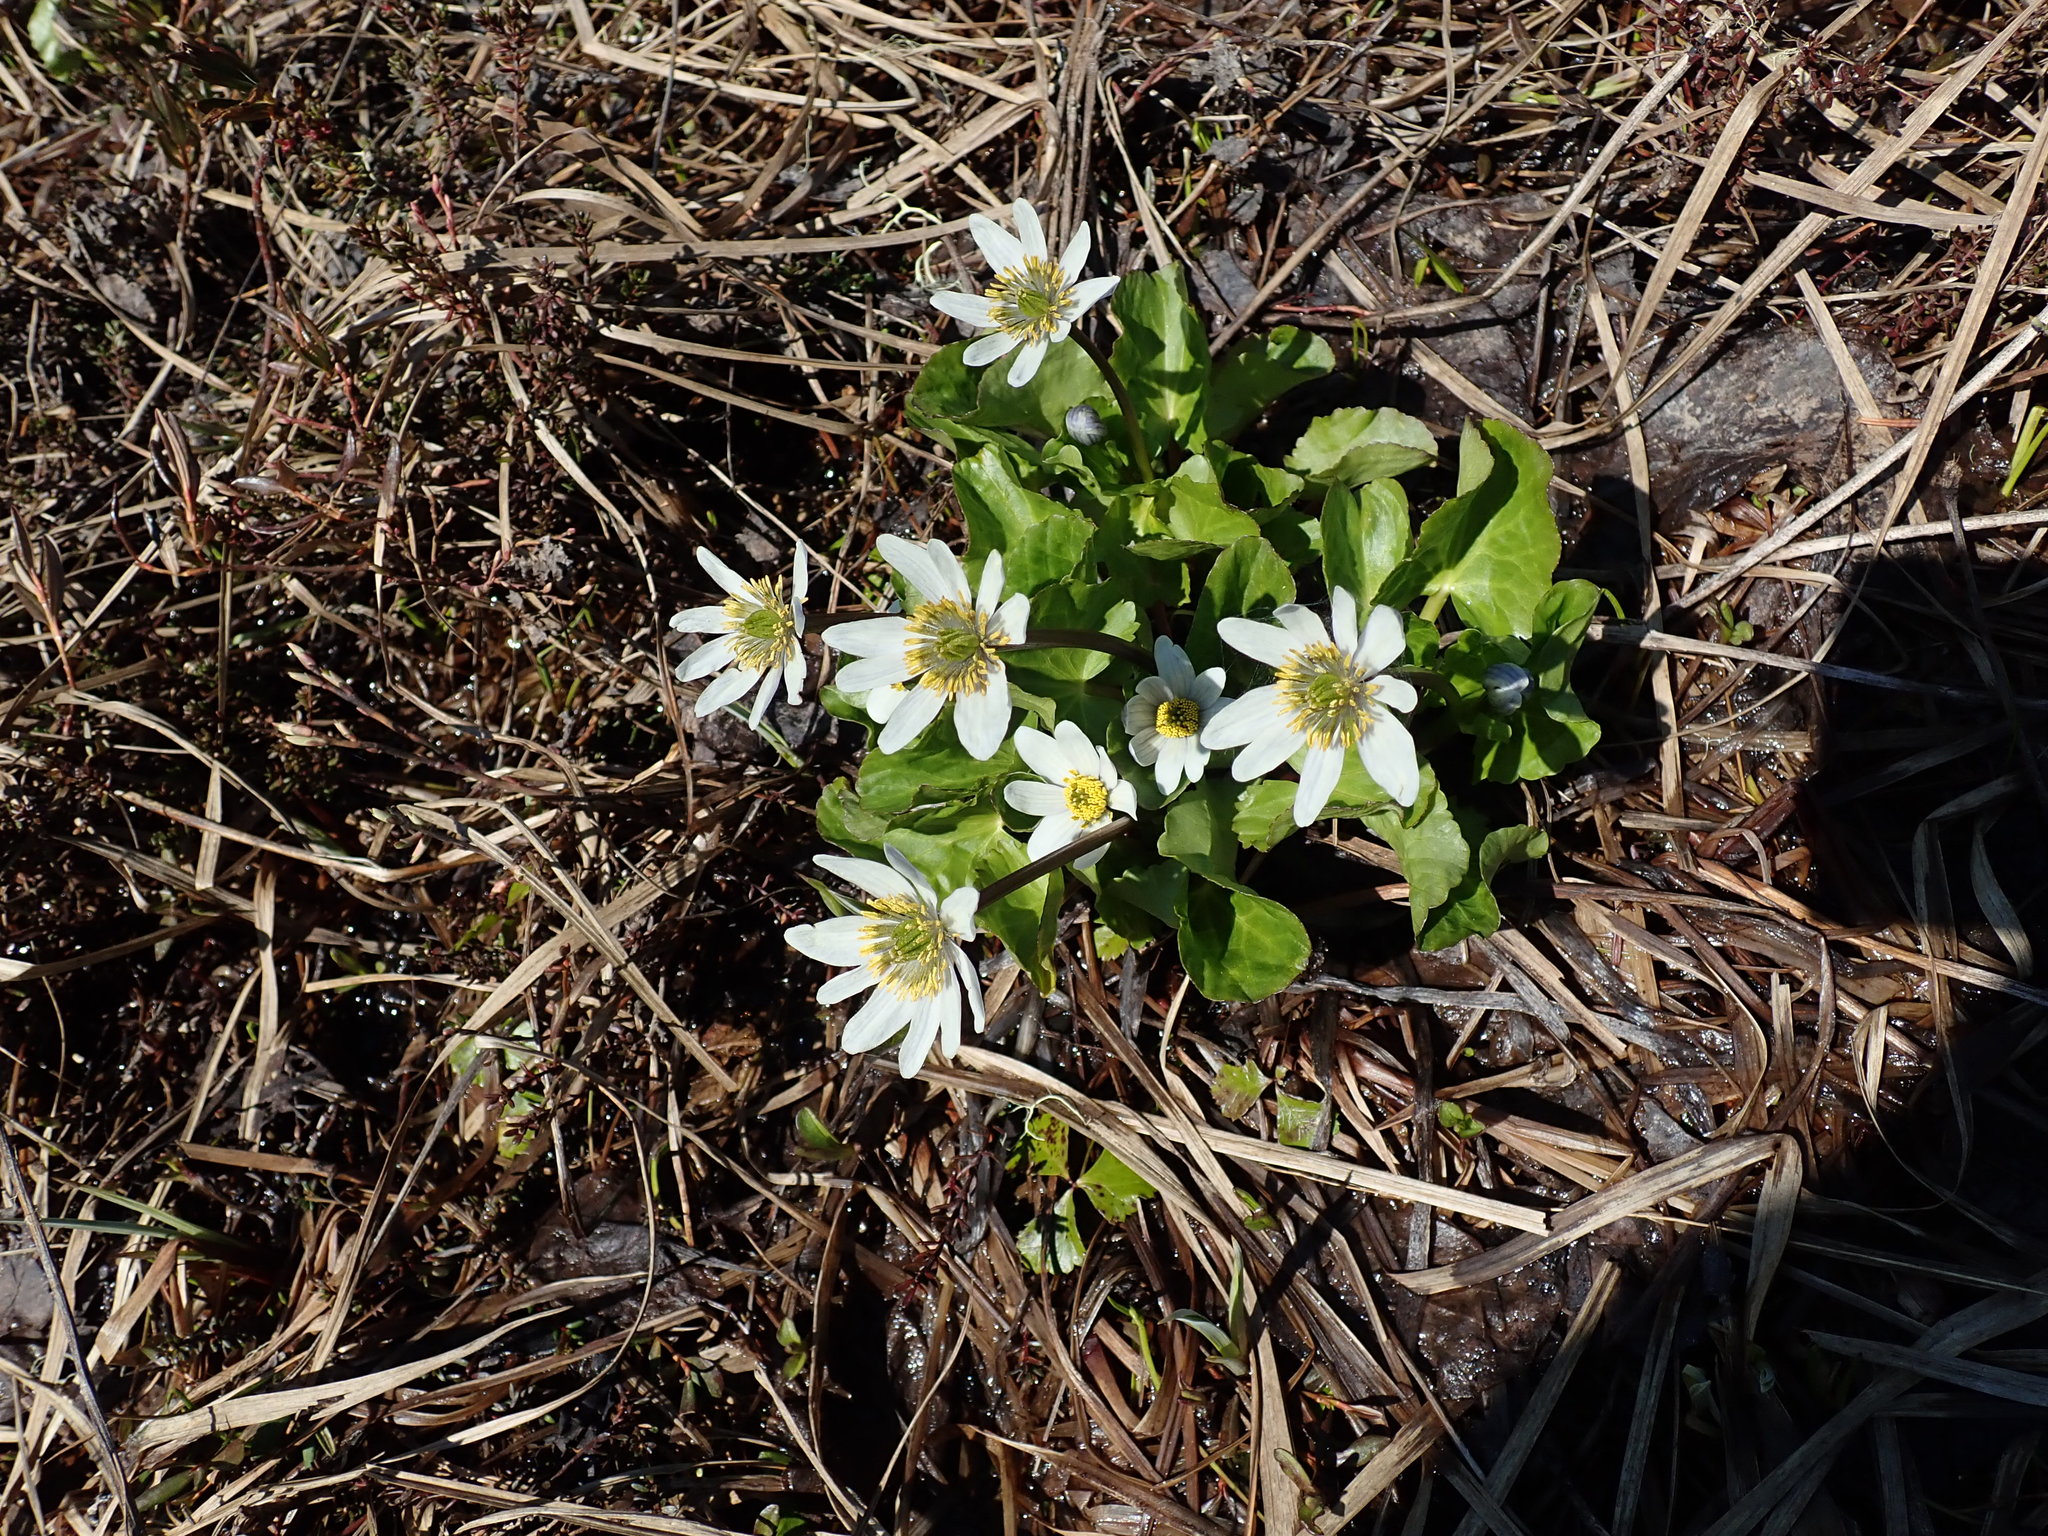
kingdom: Plantae
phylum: Tracheophyta
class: Magnoliopsida
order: Ranunculales
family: Ranunculaceae
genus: Caltha
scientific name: Caltha leptosepala
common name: Elkslip
